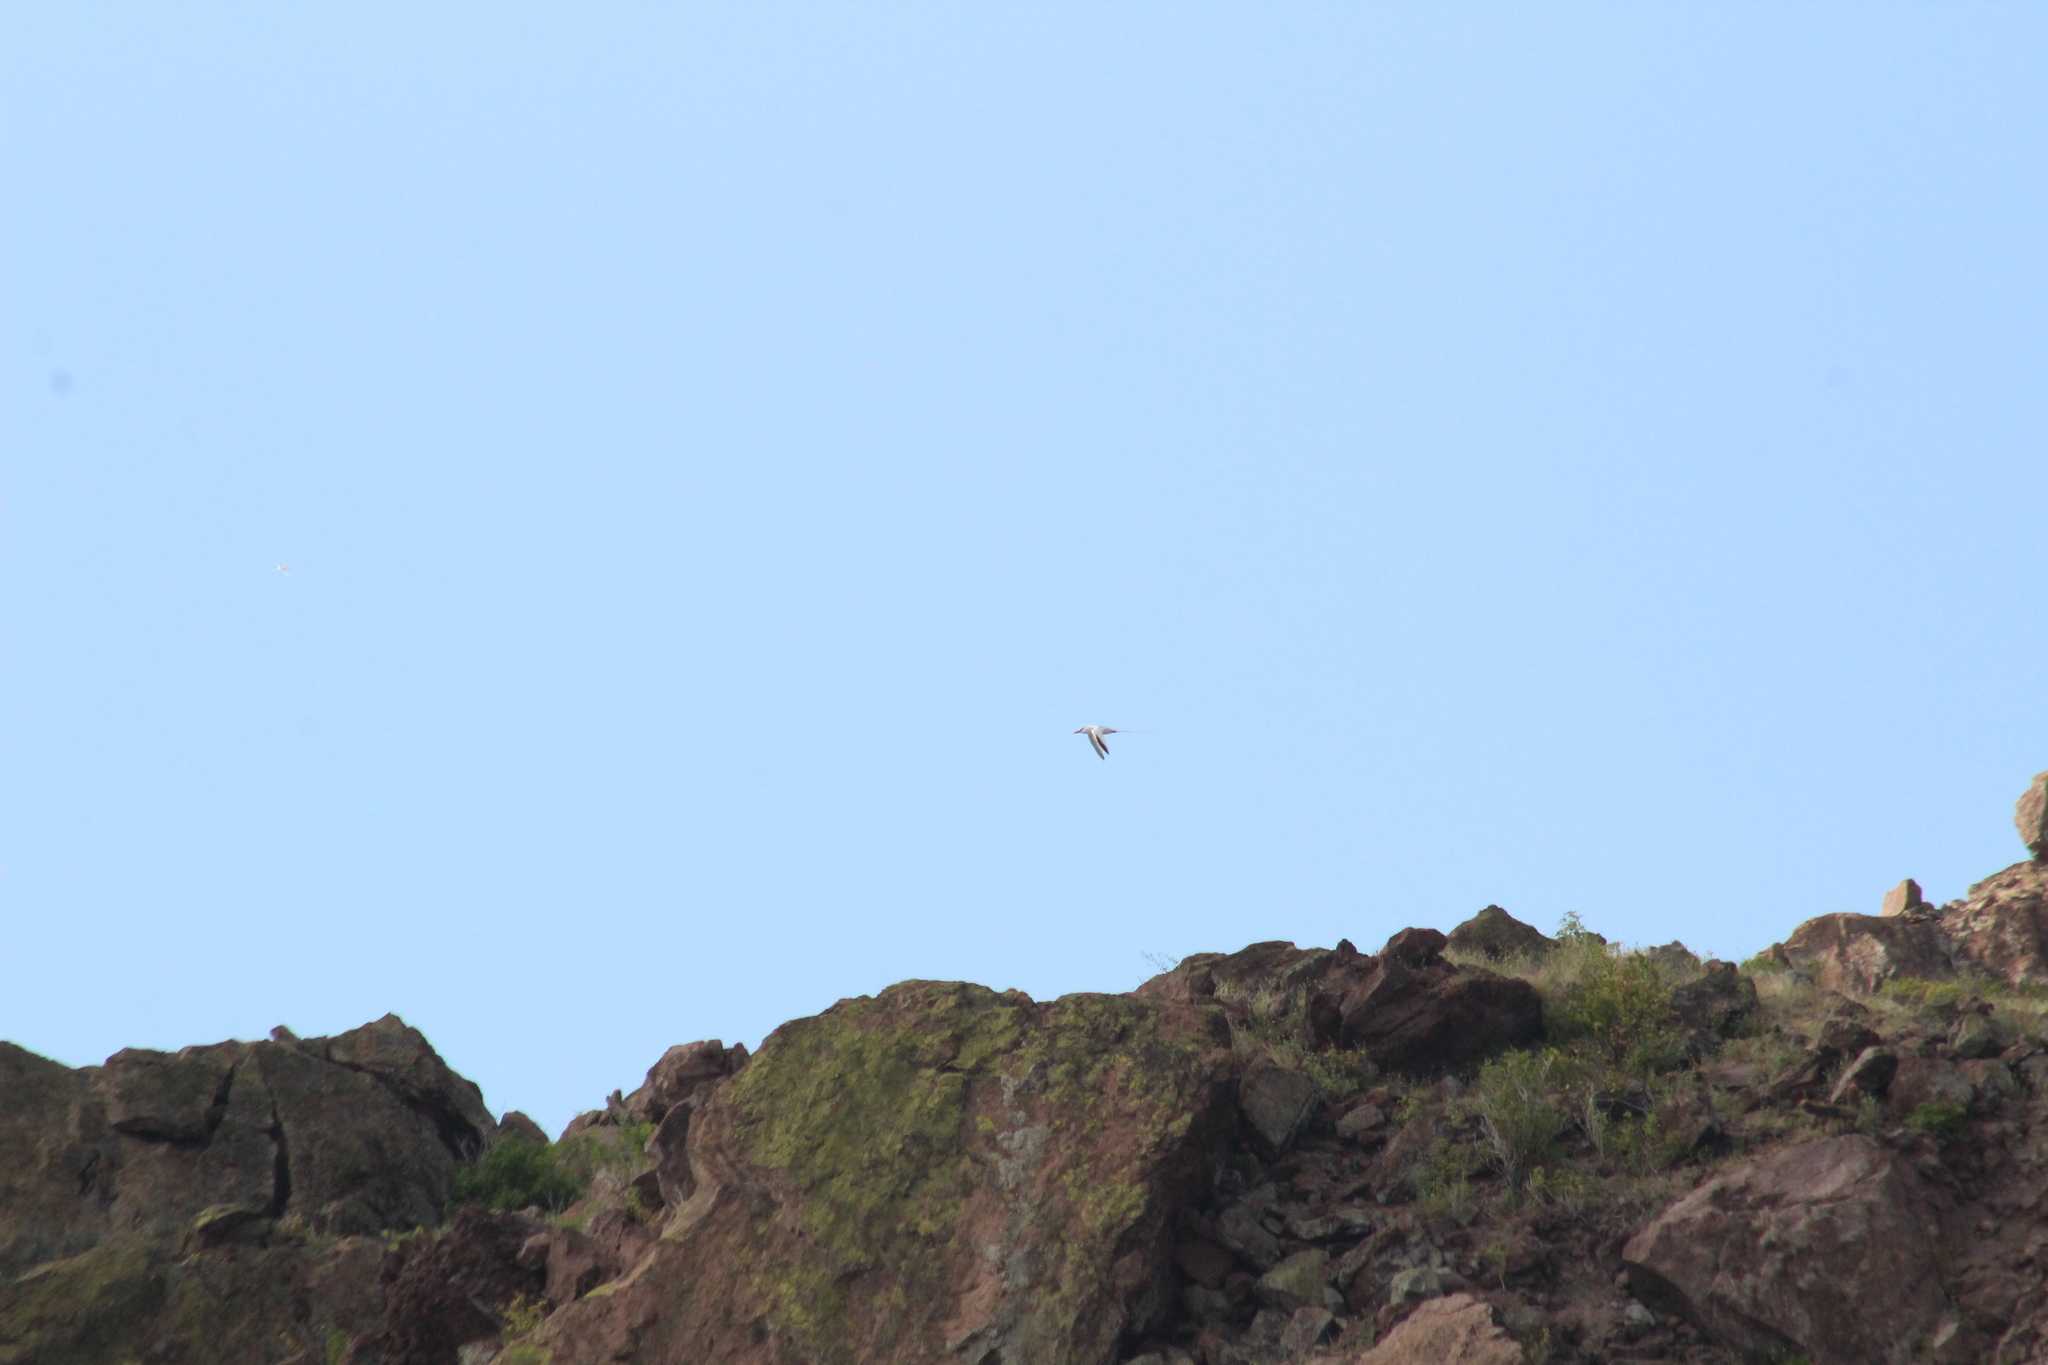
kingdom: Animalia
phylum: Chordata
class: Aves
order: Phaethontiformes
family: Phaethontidae
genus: Phaethon
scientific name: Phaethon aethereus
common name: Red-billed tropicbird
